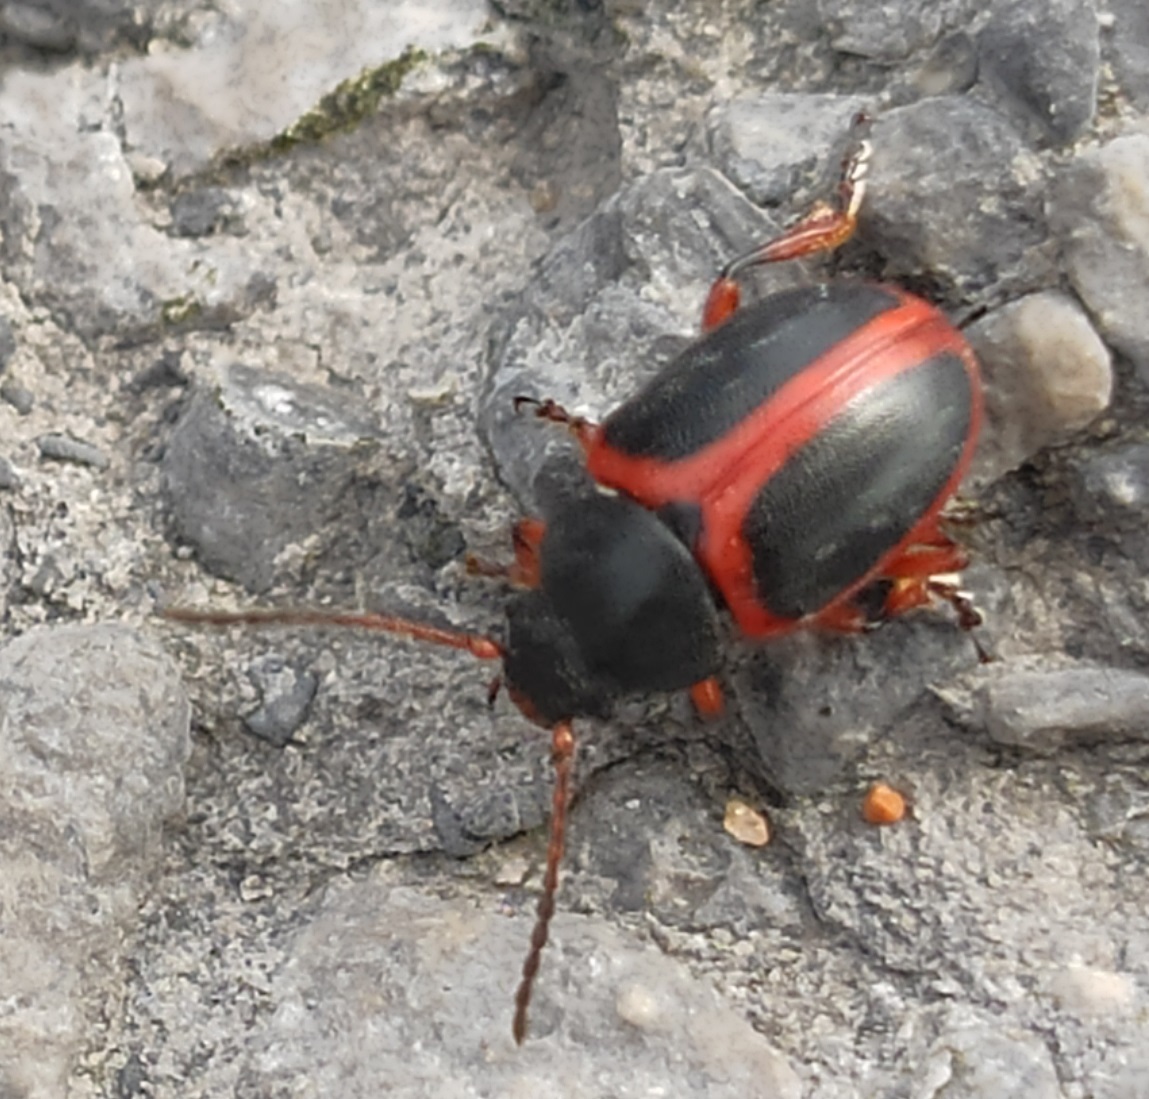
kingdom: Animalia
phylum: Arthropoda
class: Insecta
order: Coleoptera
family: Chrysomelidae
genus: Colaspidema
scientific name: Colaspidema dufouri
